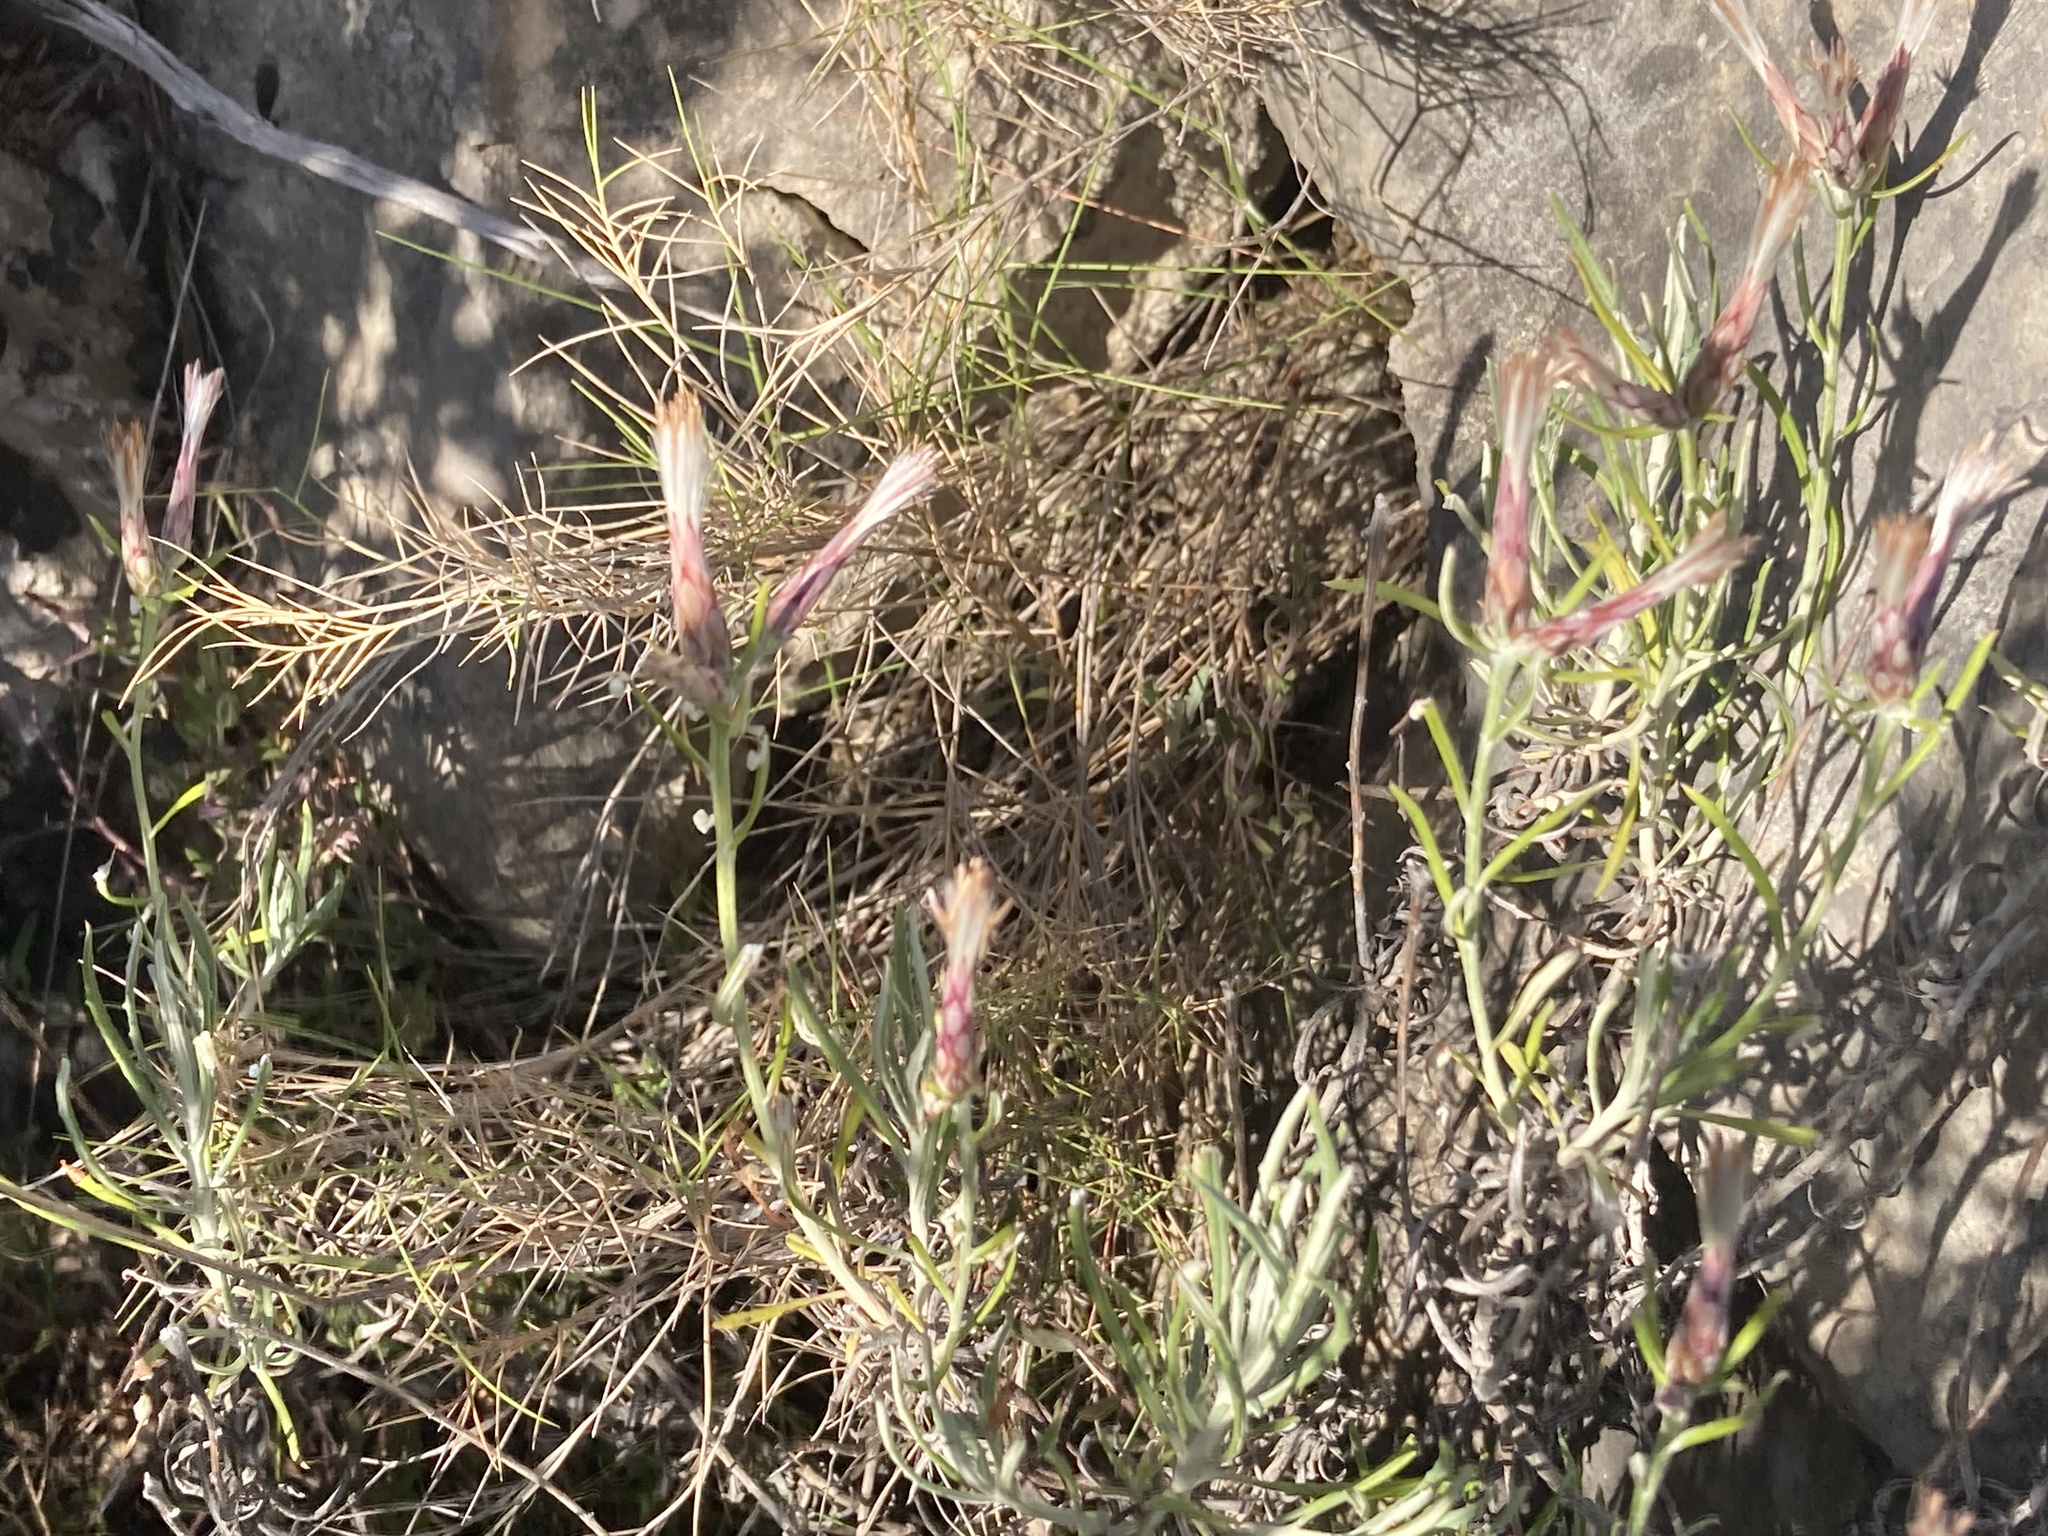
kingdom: Plantae
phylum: Tracheophyta
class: Magnoliopsida
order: Asterales
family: Asteraceae
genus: Staehelina
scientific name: Staehelina dubia
